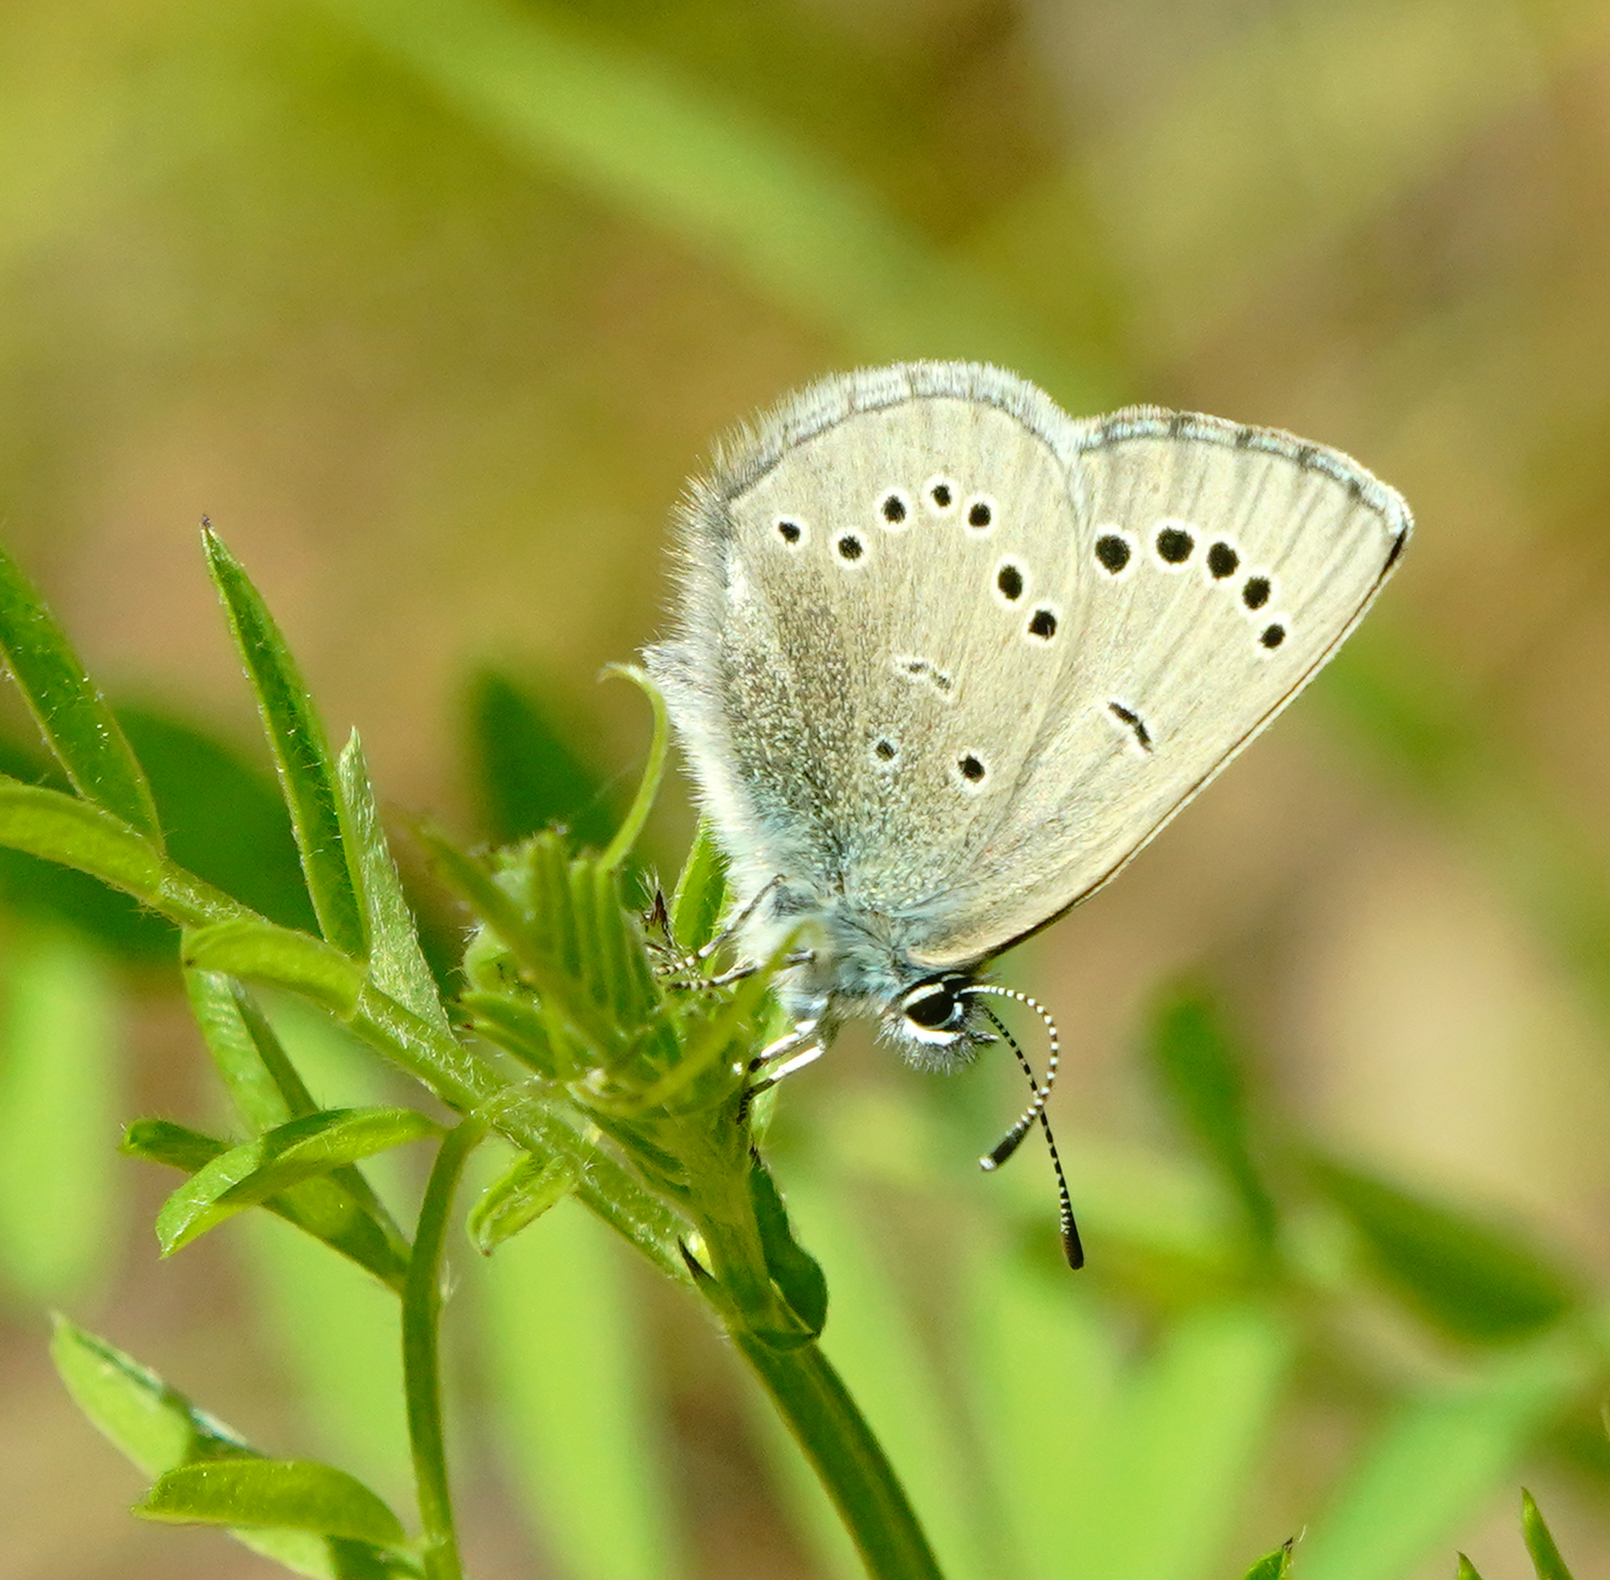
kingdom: Animalia
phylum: Arthropoda
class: Insecta
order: Lepidoptera
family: Lycaenidae
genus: Glaucopsyche
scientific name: Glaucopsyche lygdamus
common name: Silvery blue
